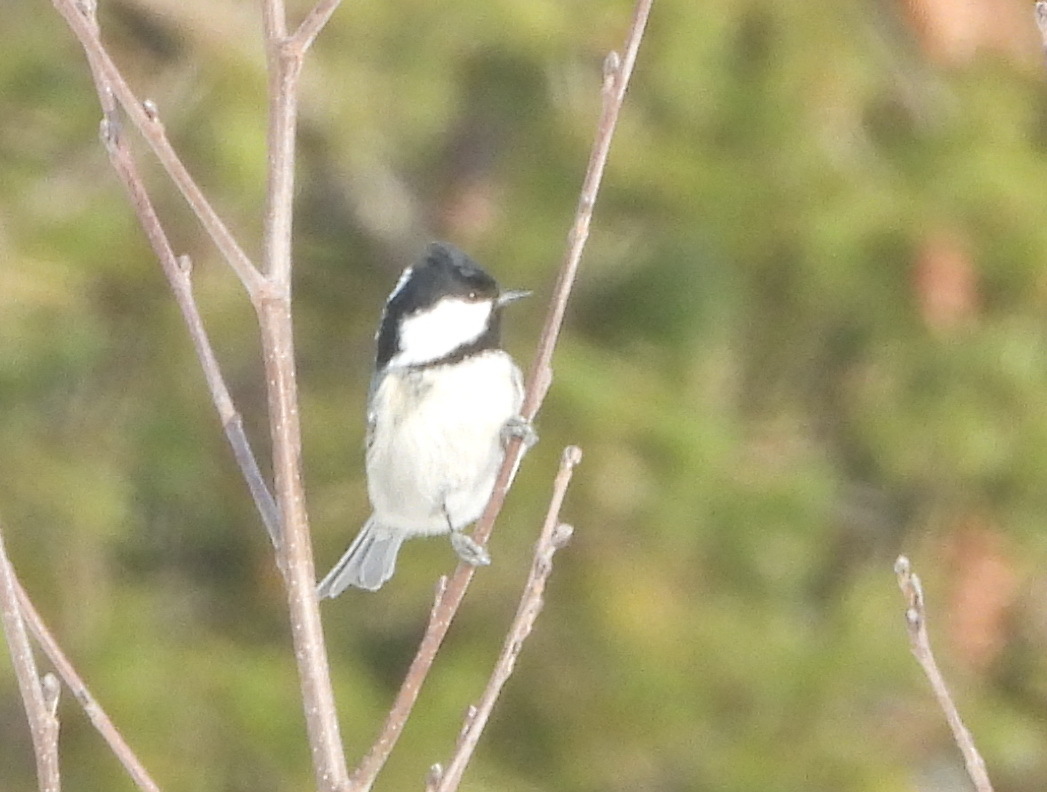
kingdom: Animalia
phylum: Chordata
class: Aves
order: Passeriformes
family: Paridae
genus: Periparus
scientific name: Periparus ater
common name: Coal tit
